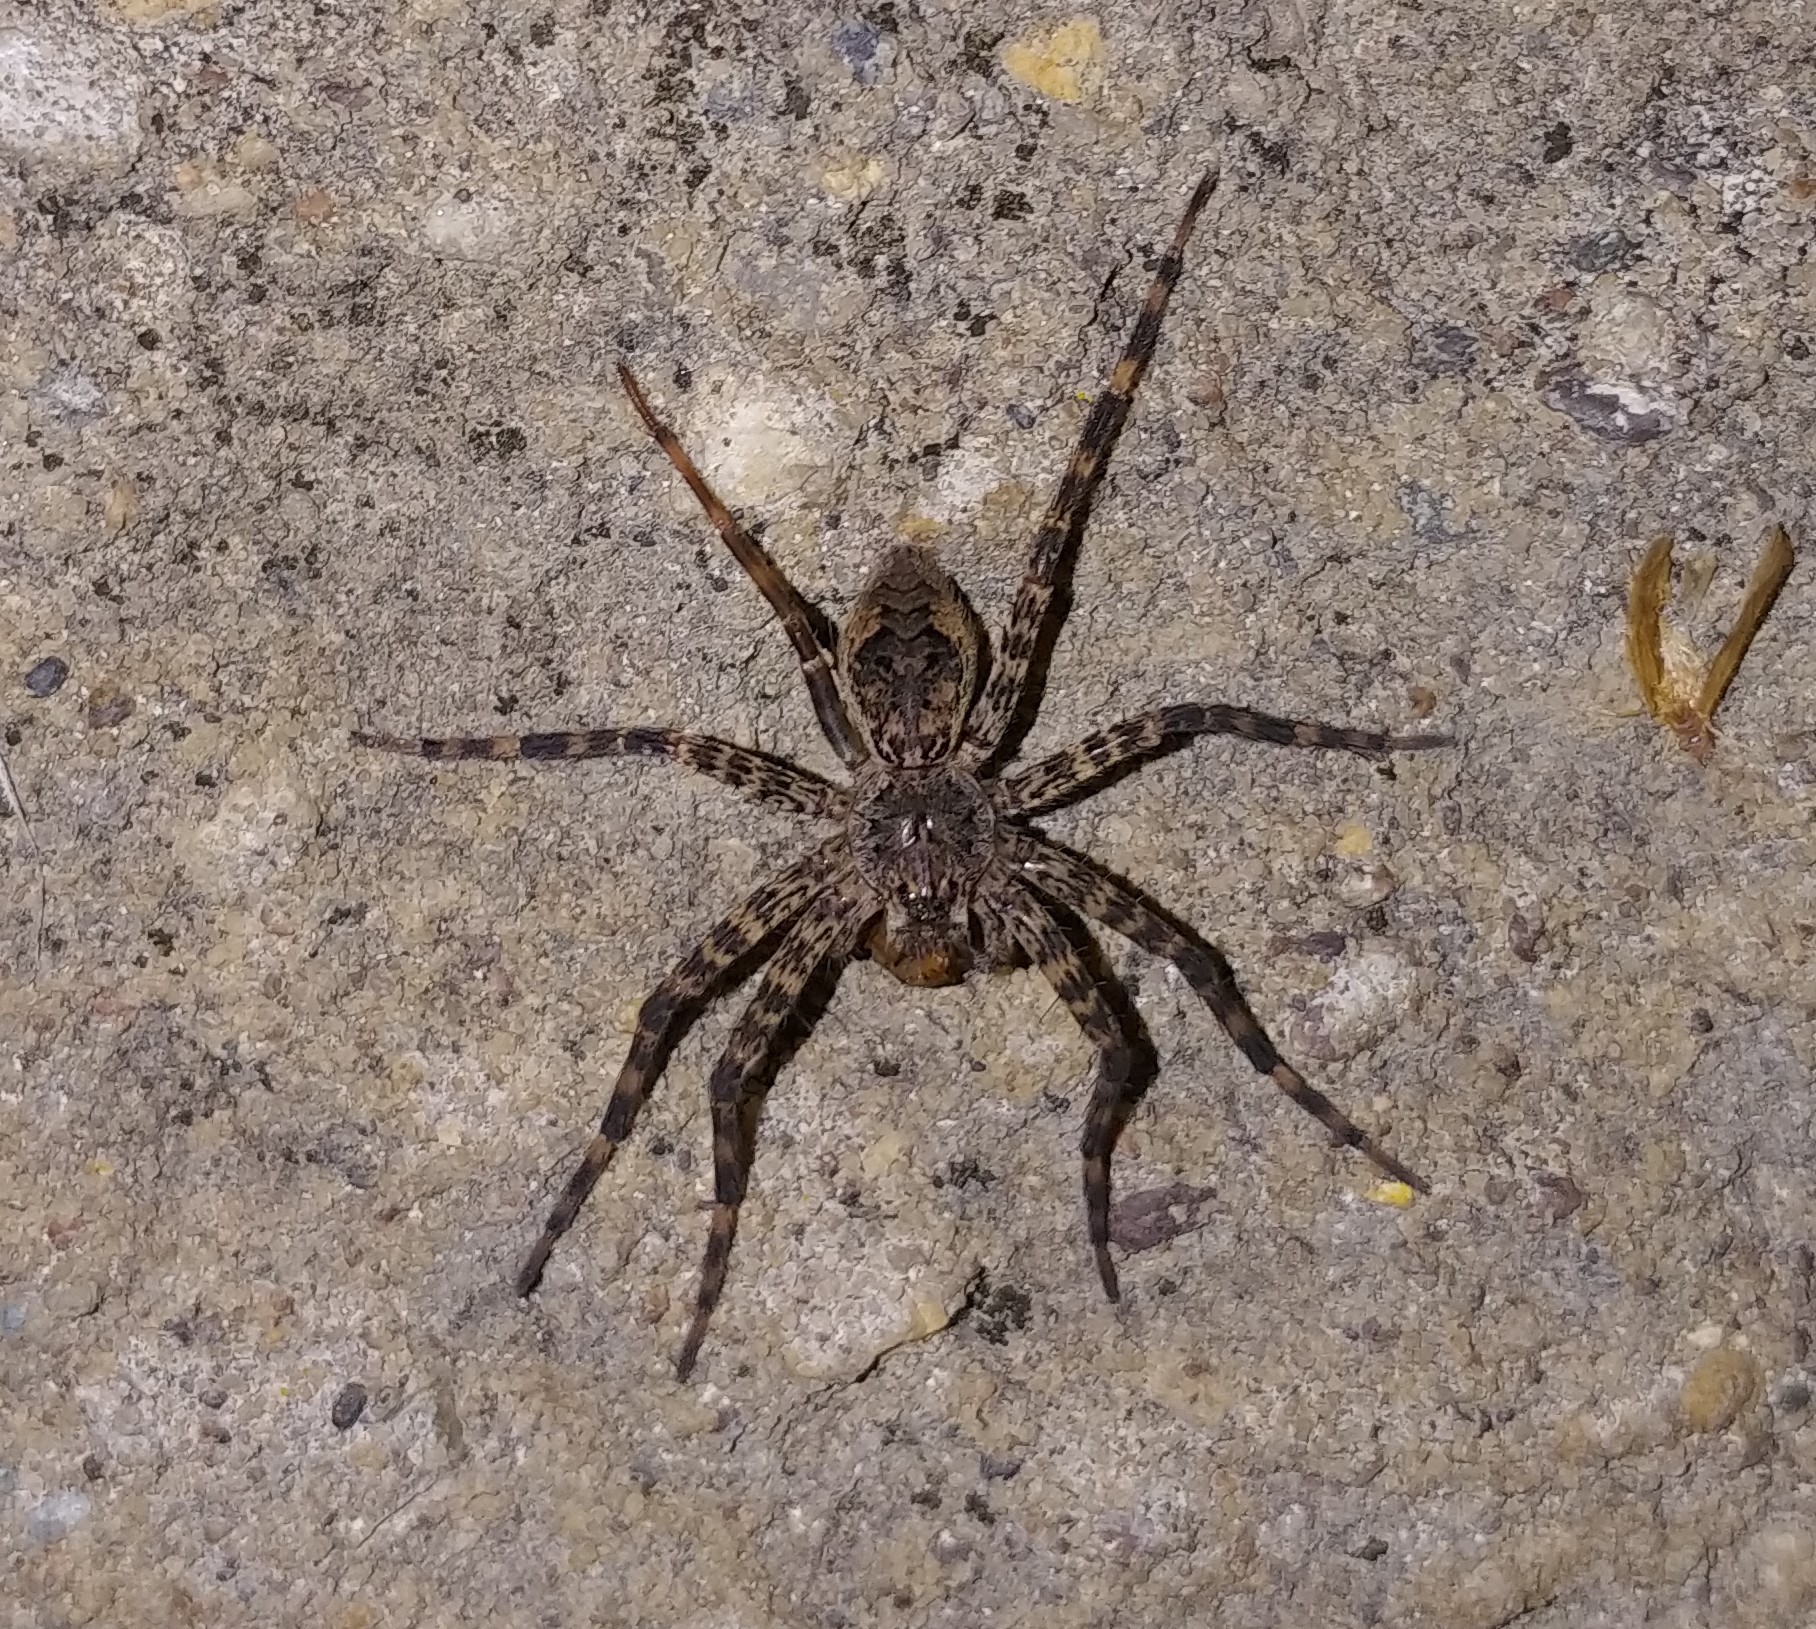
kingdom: Animalia
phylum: Arthropoda
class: Arachnida
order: Araneae
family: Pisauridae
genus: Dolomedes
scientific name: Dolomedes tenebrosus
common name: Dark fishing spider
